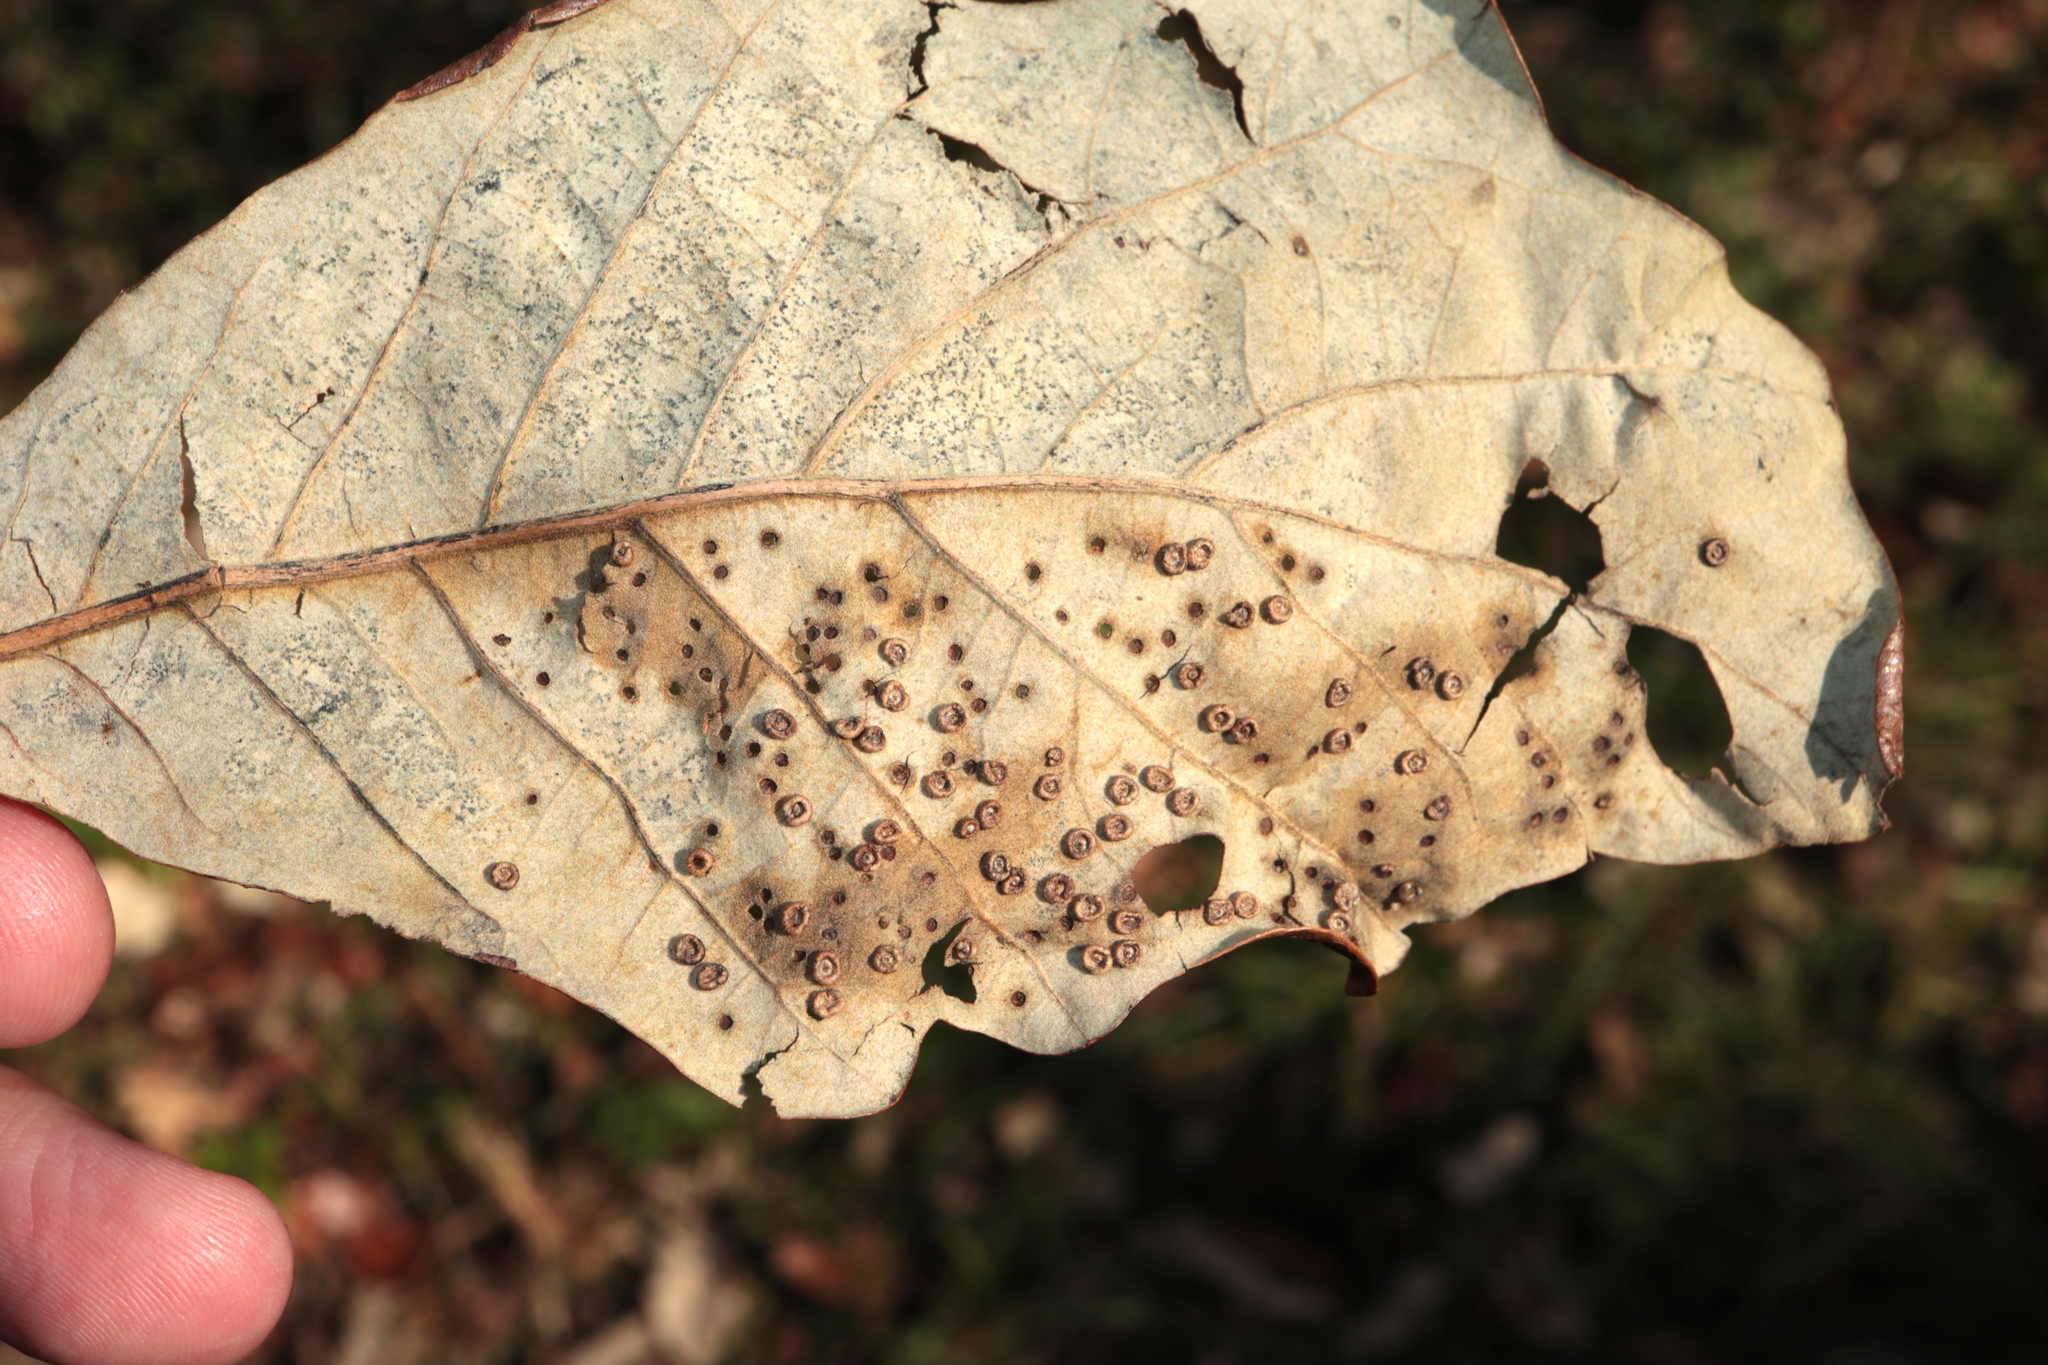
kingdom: Animalia
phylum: Arthropoda
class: Insecta
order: Hymenoptera
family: Cynipidae
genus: Neuroterus
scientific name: Neuroterus
